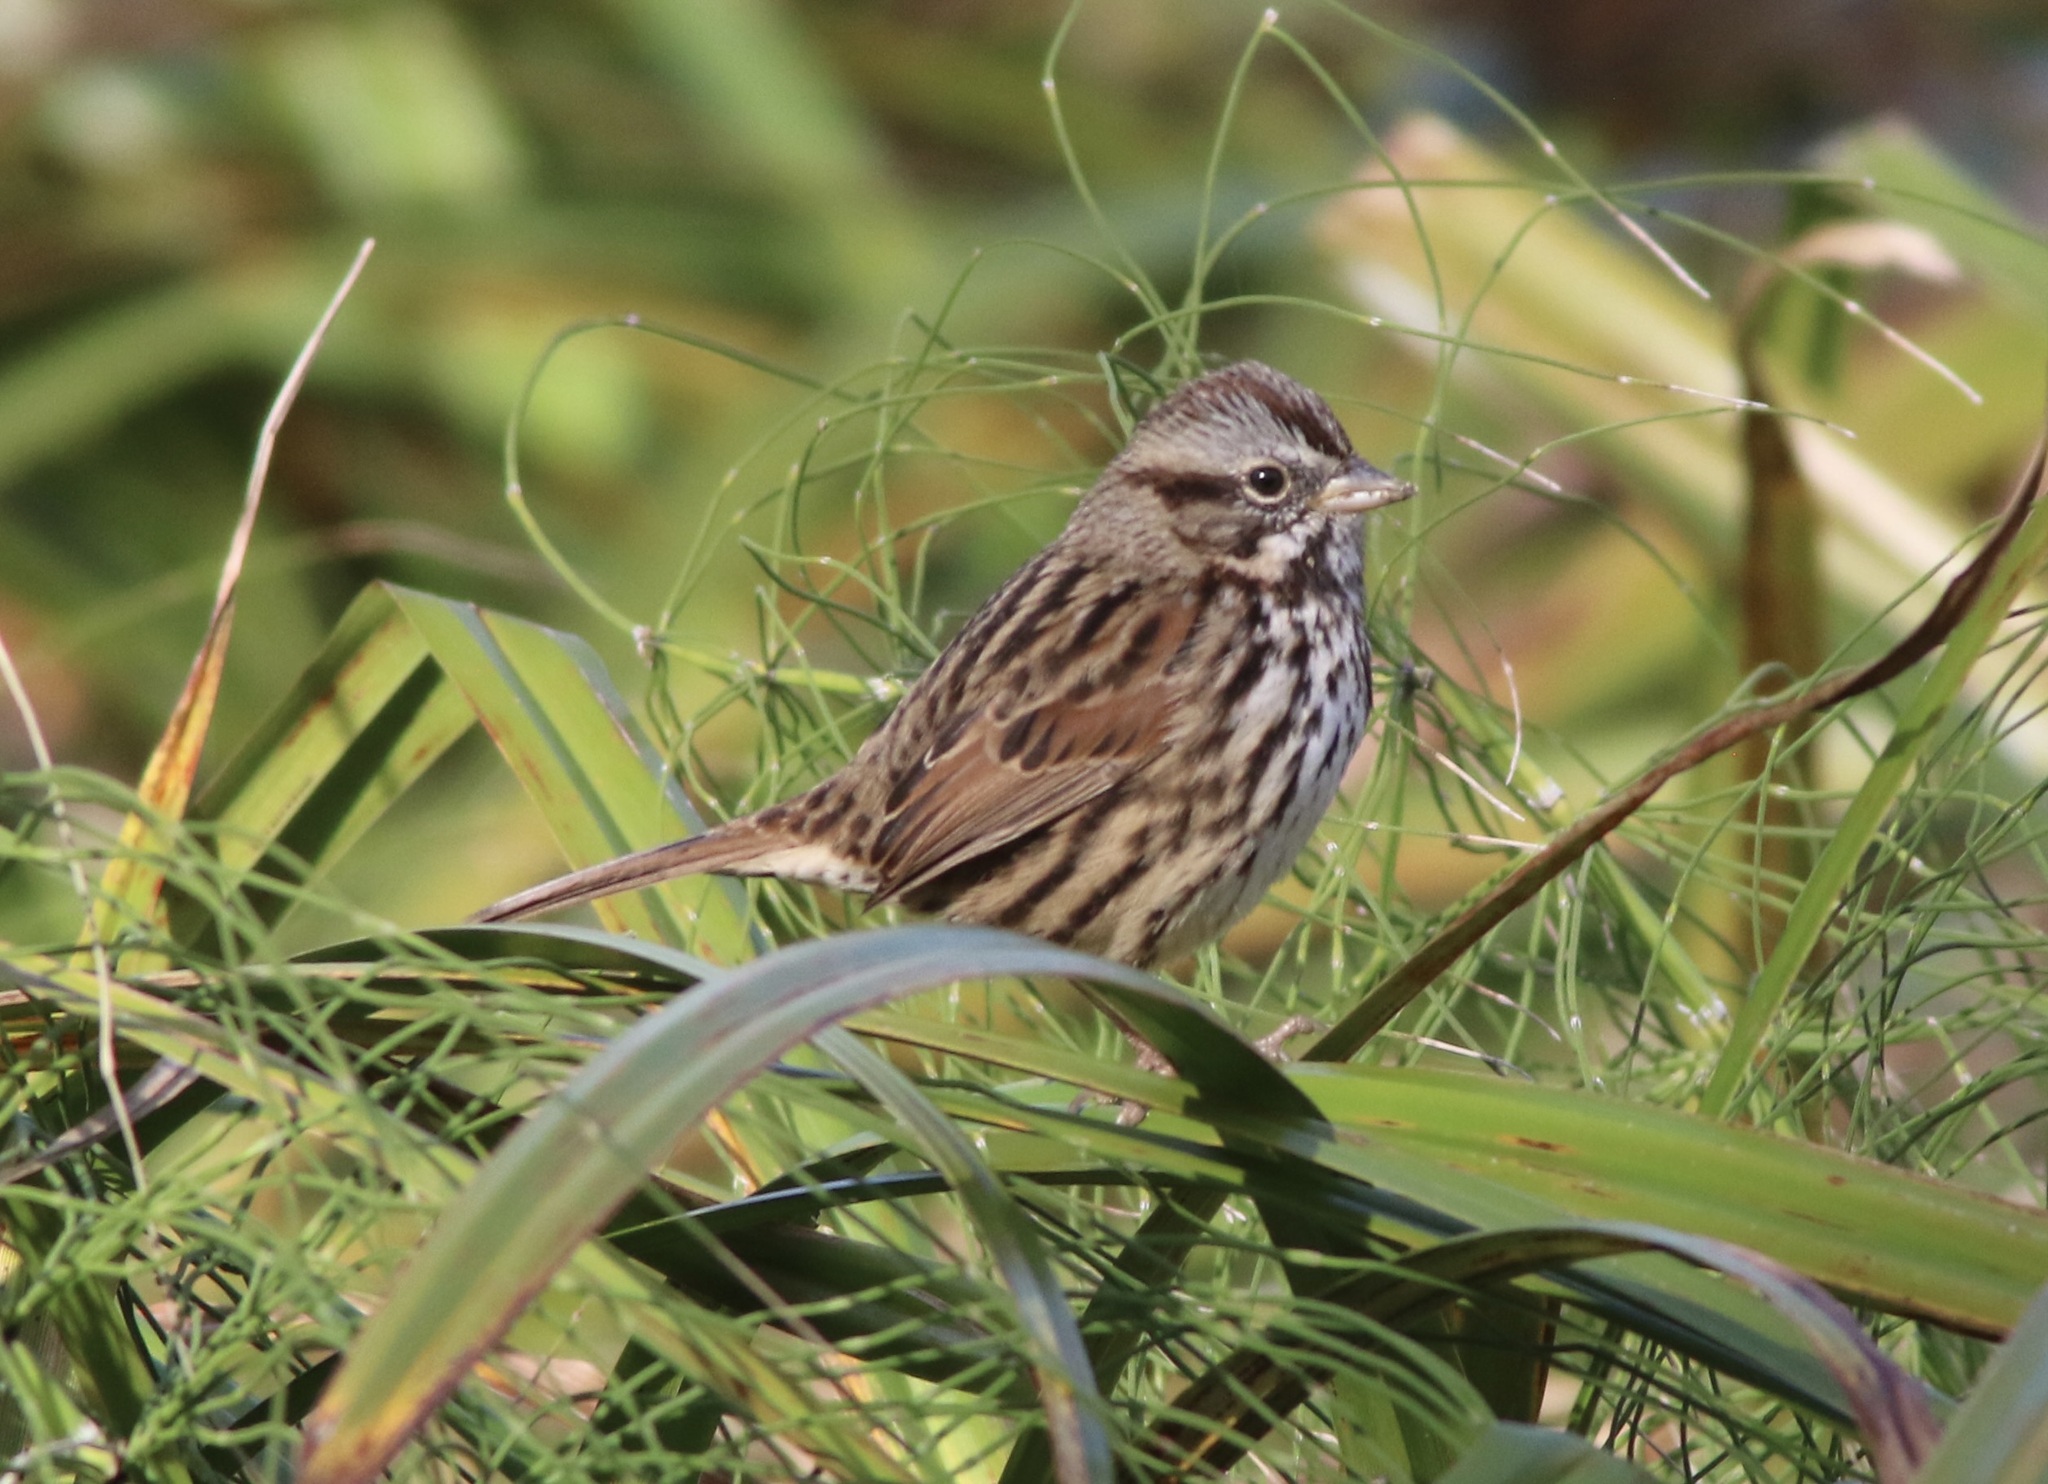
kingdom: Animalia
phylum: Chordata
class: Aves
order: Passeriformes
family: Passerellidae
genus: Melospiza
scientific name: Melospiza melodia
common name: Song sparrow
